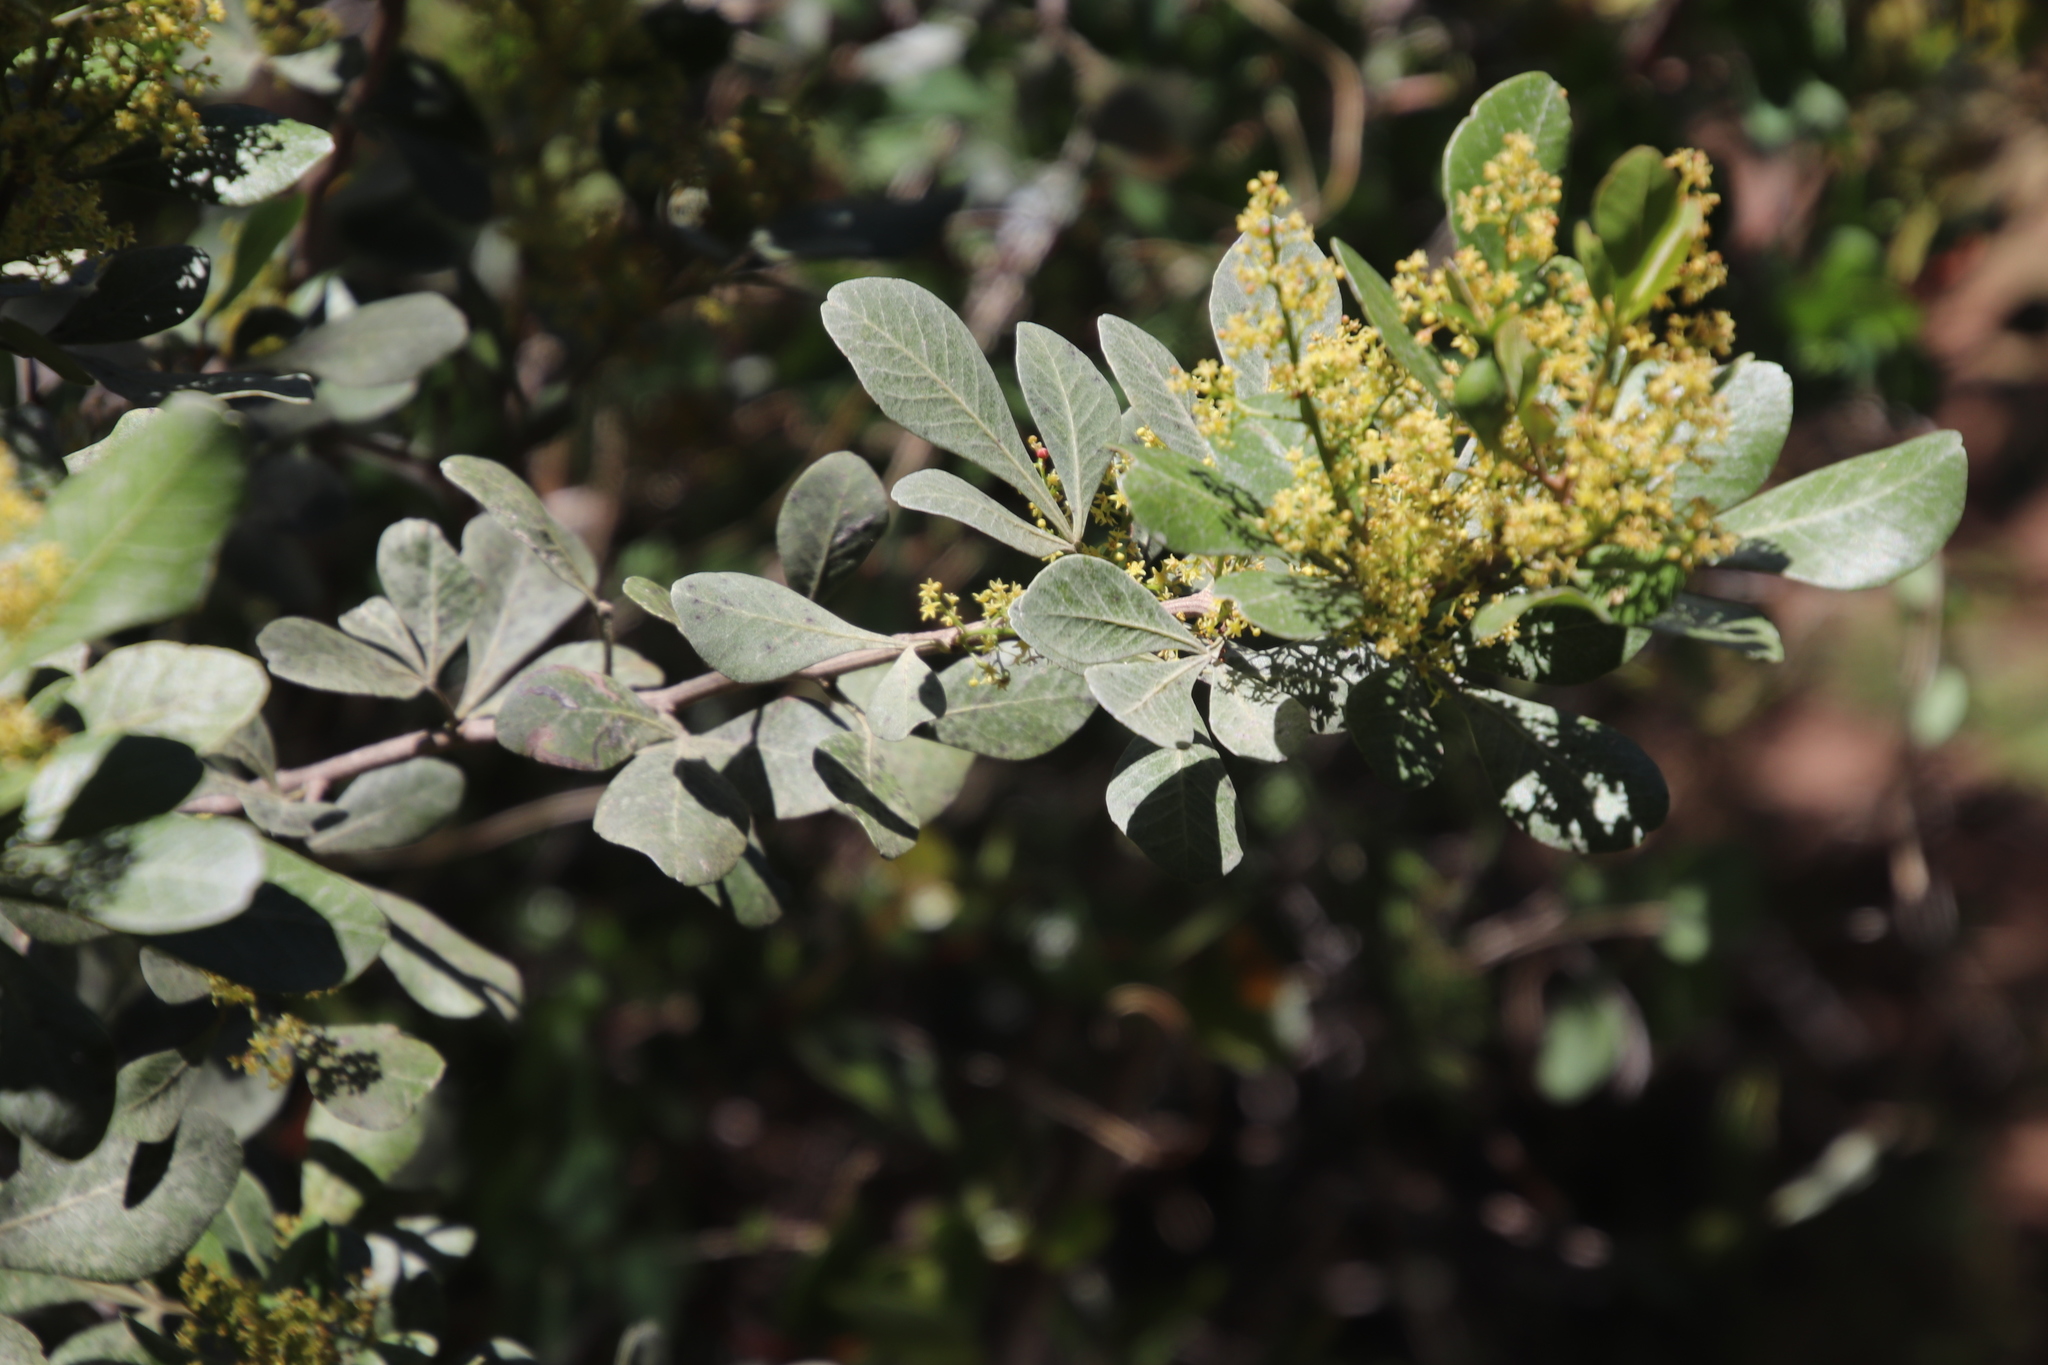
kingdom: Plantae
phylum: Tracheophyta
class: Magnoliopsida
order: Sapindales
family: Anacardiaceae
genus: Searsia
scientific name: Searsia lucida
